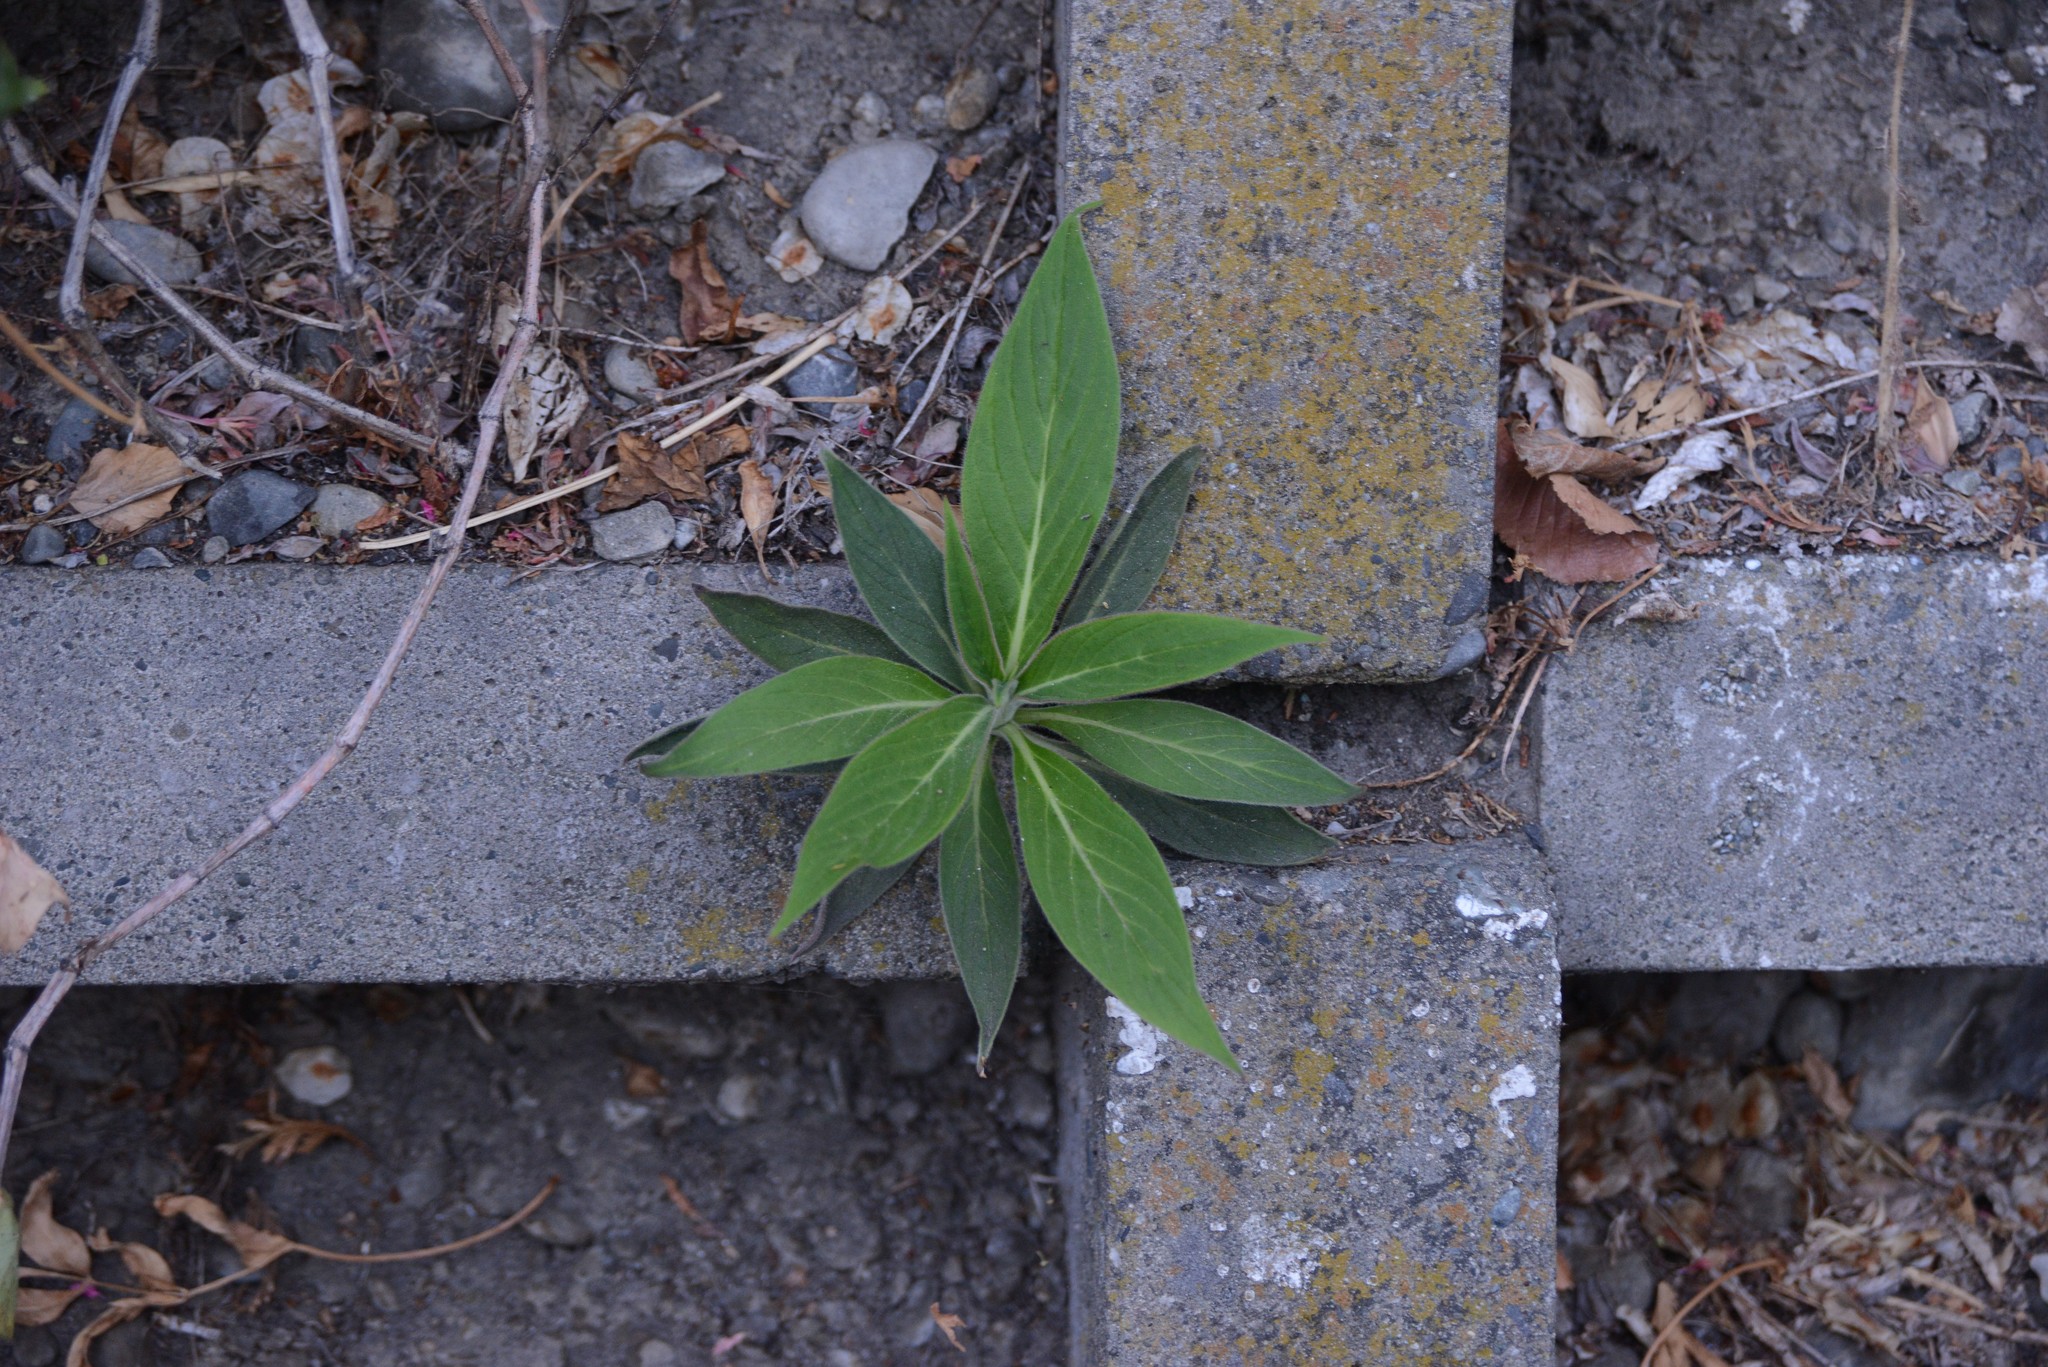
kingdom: Plantae
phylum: Tracheophyta
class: Magnoliopsida
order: Boraginales
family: Boraginaceae
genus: Echium
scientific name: Echium candicans
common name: Pride of madeira
